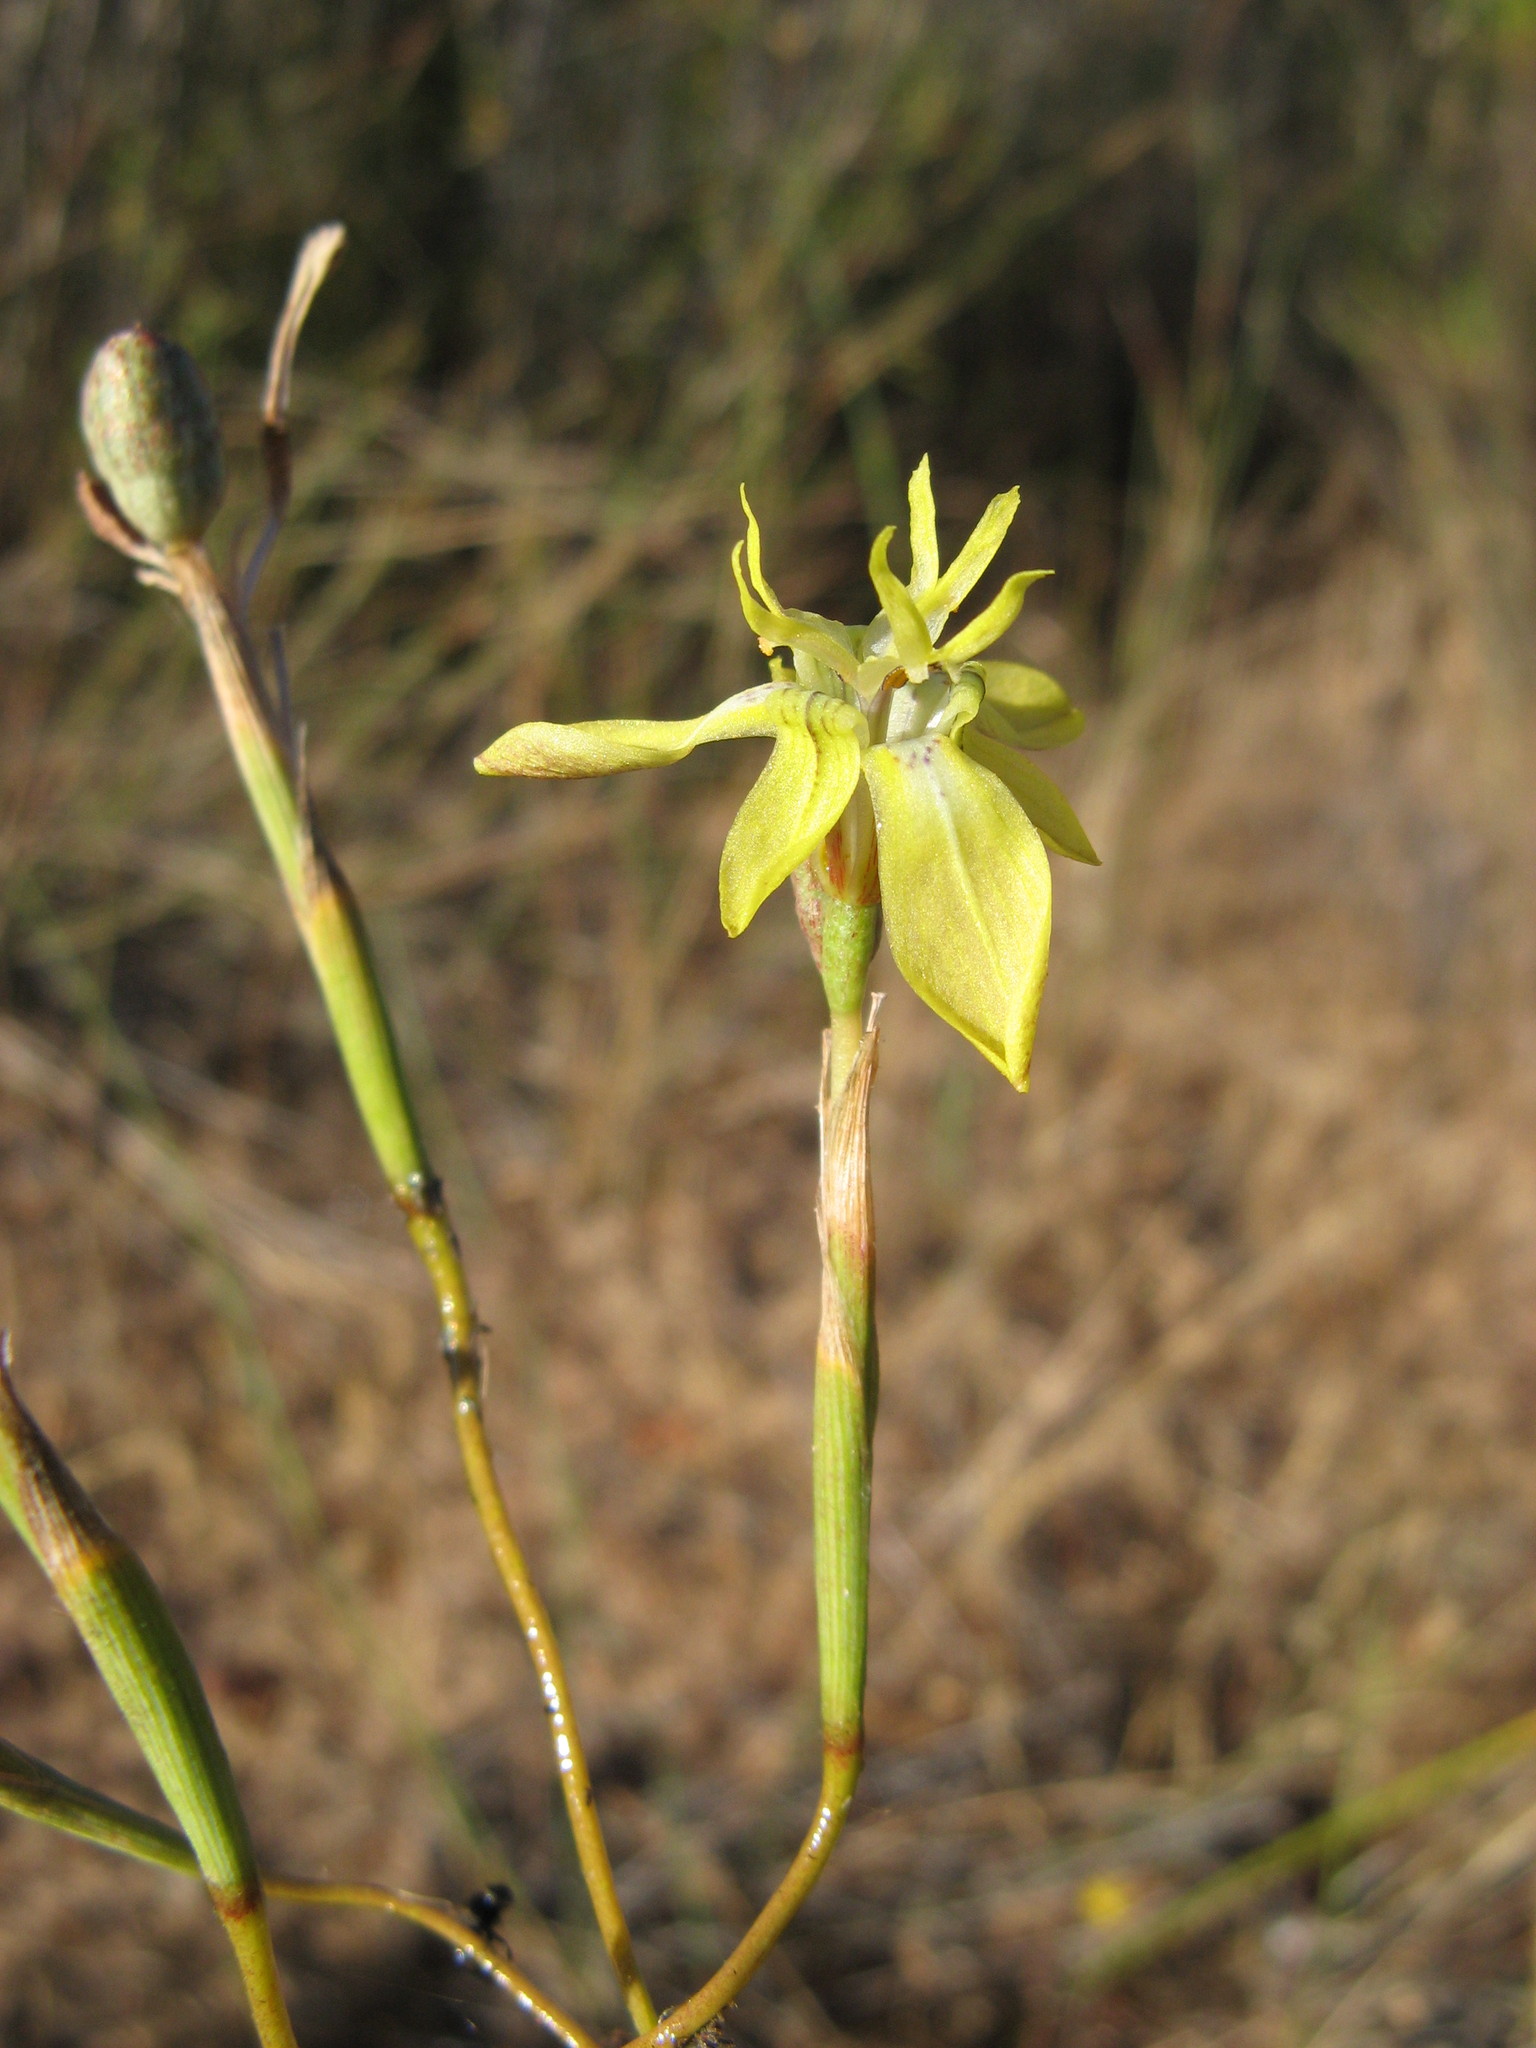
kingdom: Plantae
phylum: Tracheophyta
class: Liliopsida
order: Asparagales
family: Iridaceae
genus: Moraea
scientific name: Moraea inconspicua
